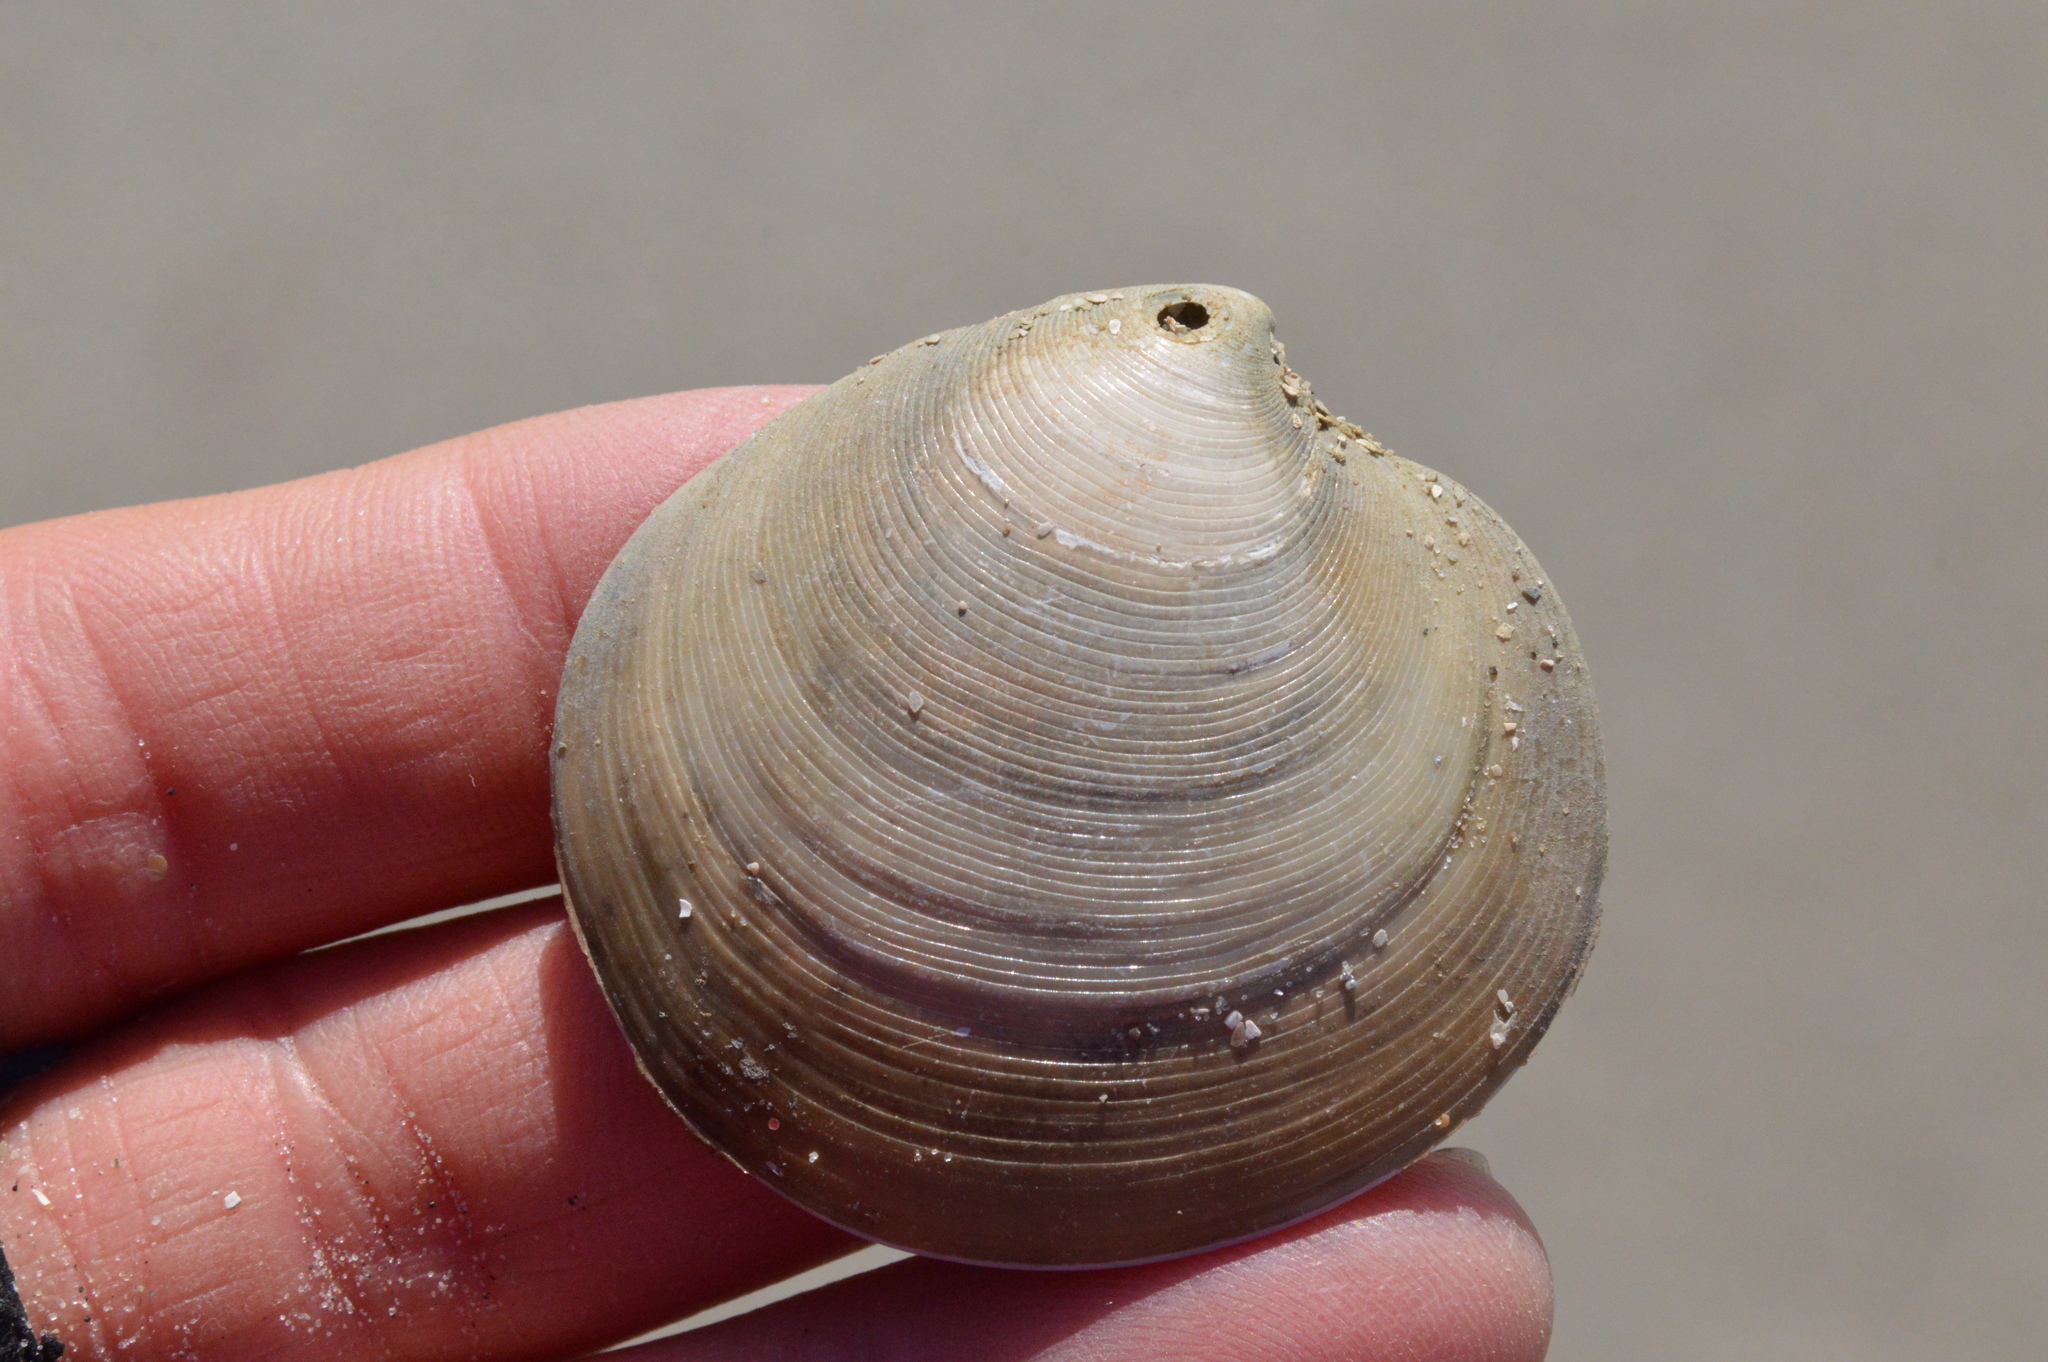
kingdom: Animalia
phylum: Mollusca
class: Bivalvia
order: Venerida
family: Veneridae
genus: Dosinia
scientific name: Dosinia discus
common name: Disk dosinia
